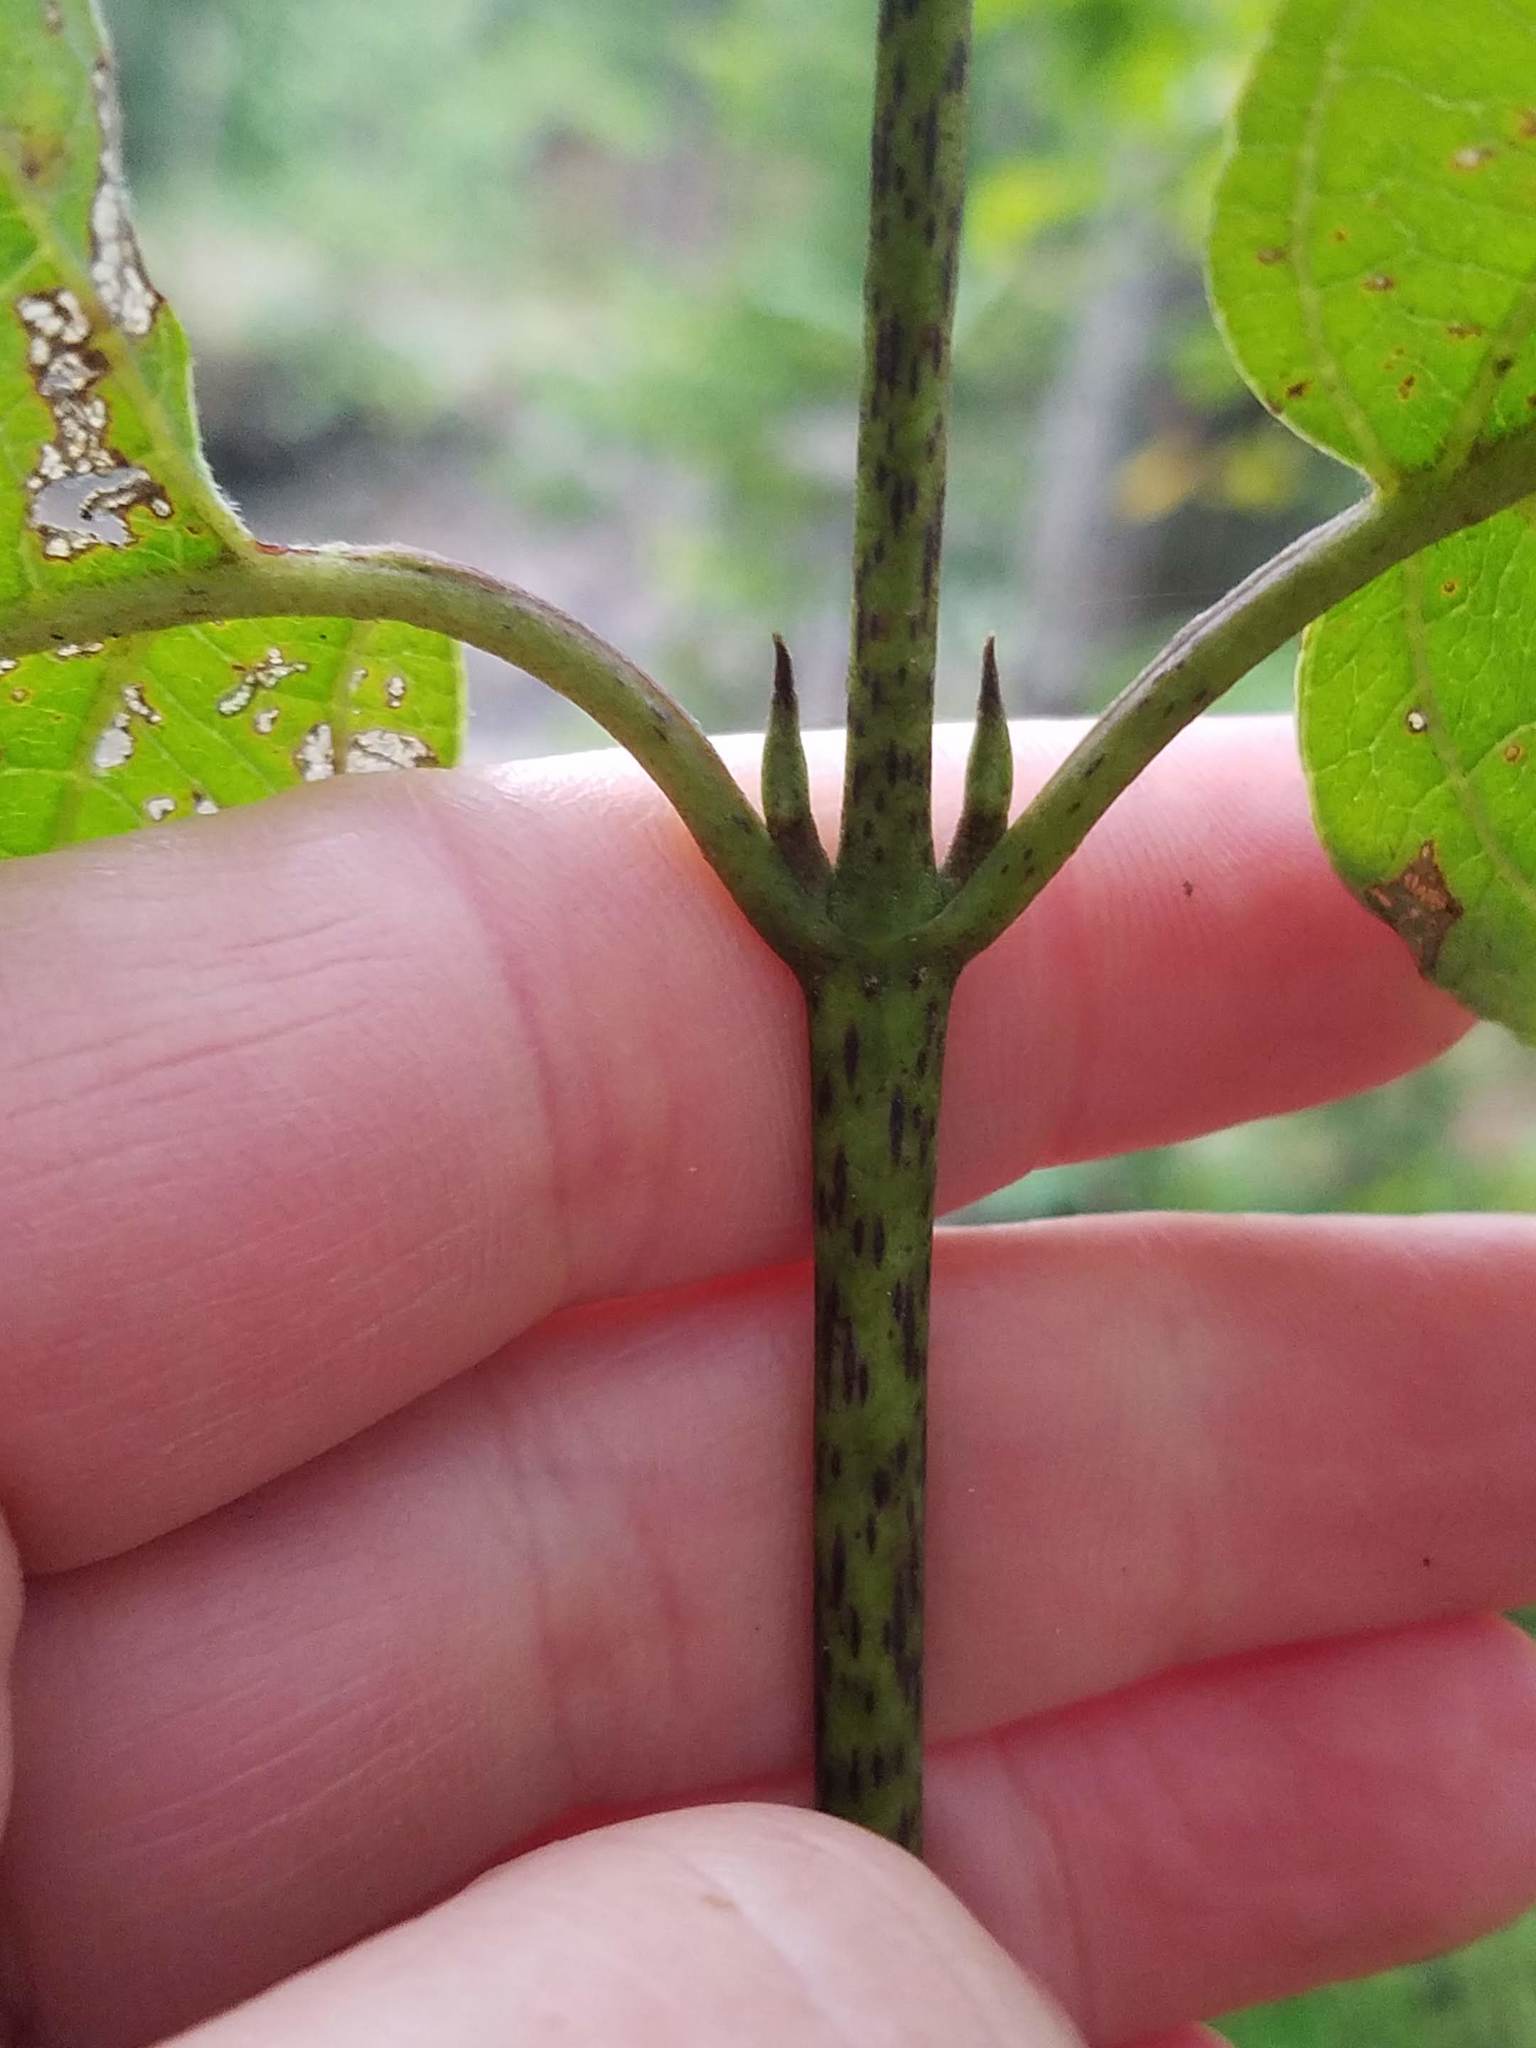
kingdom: Plantae
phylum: Tracheophyta
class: Magnoliopsida
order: Cornales
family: Cornaceae
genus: Cornus
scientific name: Cornus rugosa
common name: Round-leaf dogwood
